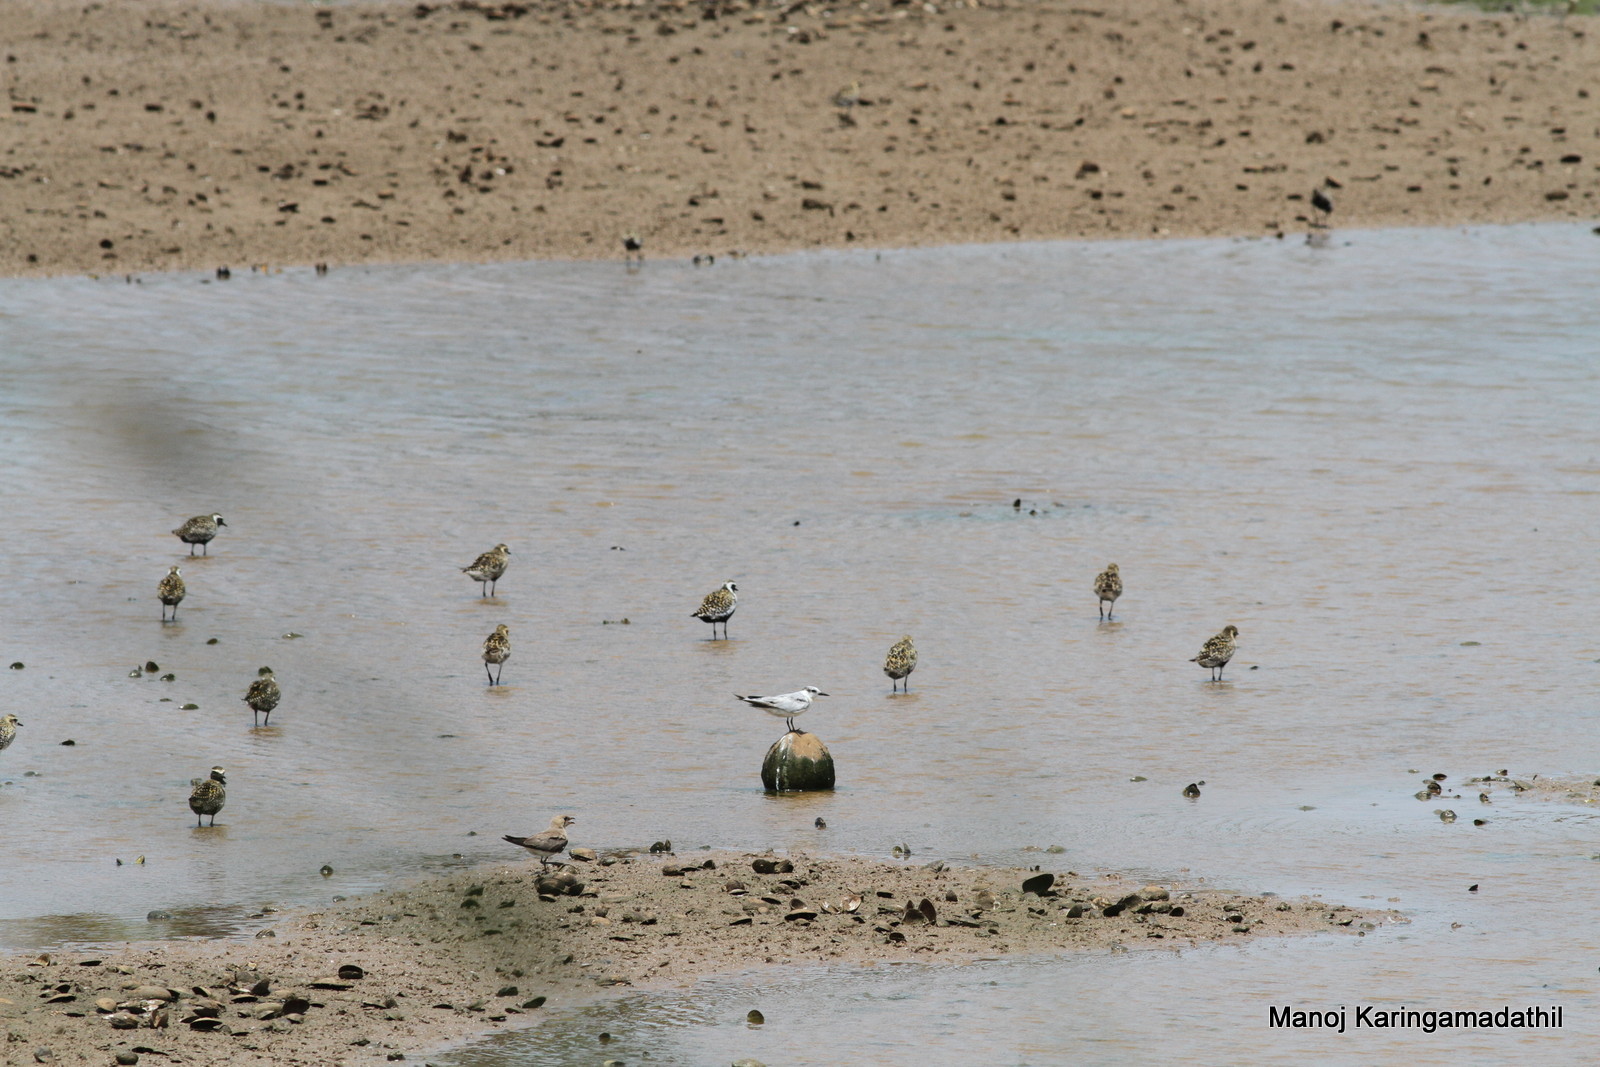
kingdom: Animalia
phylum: Chordata
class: Aves
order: Charadriiformes
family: Laridae
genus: Chlidonias
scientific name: Chlidonias hybrida
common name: Whiskered tern
